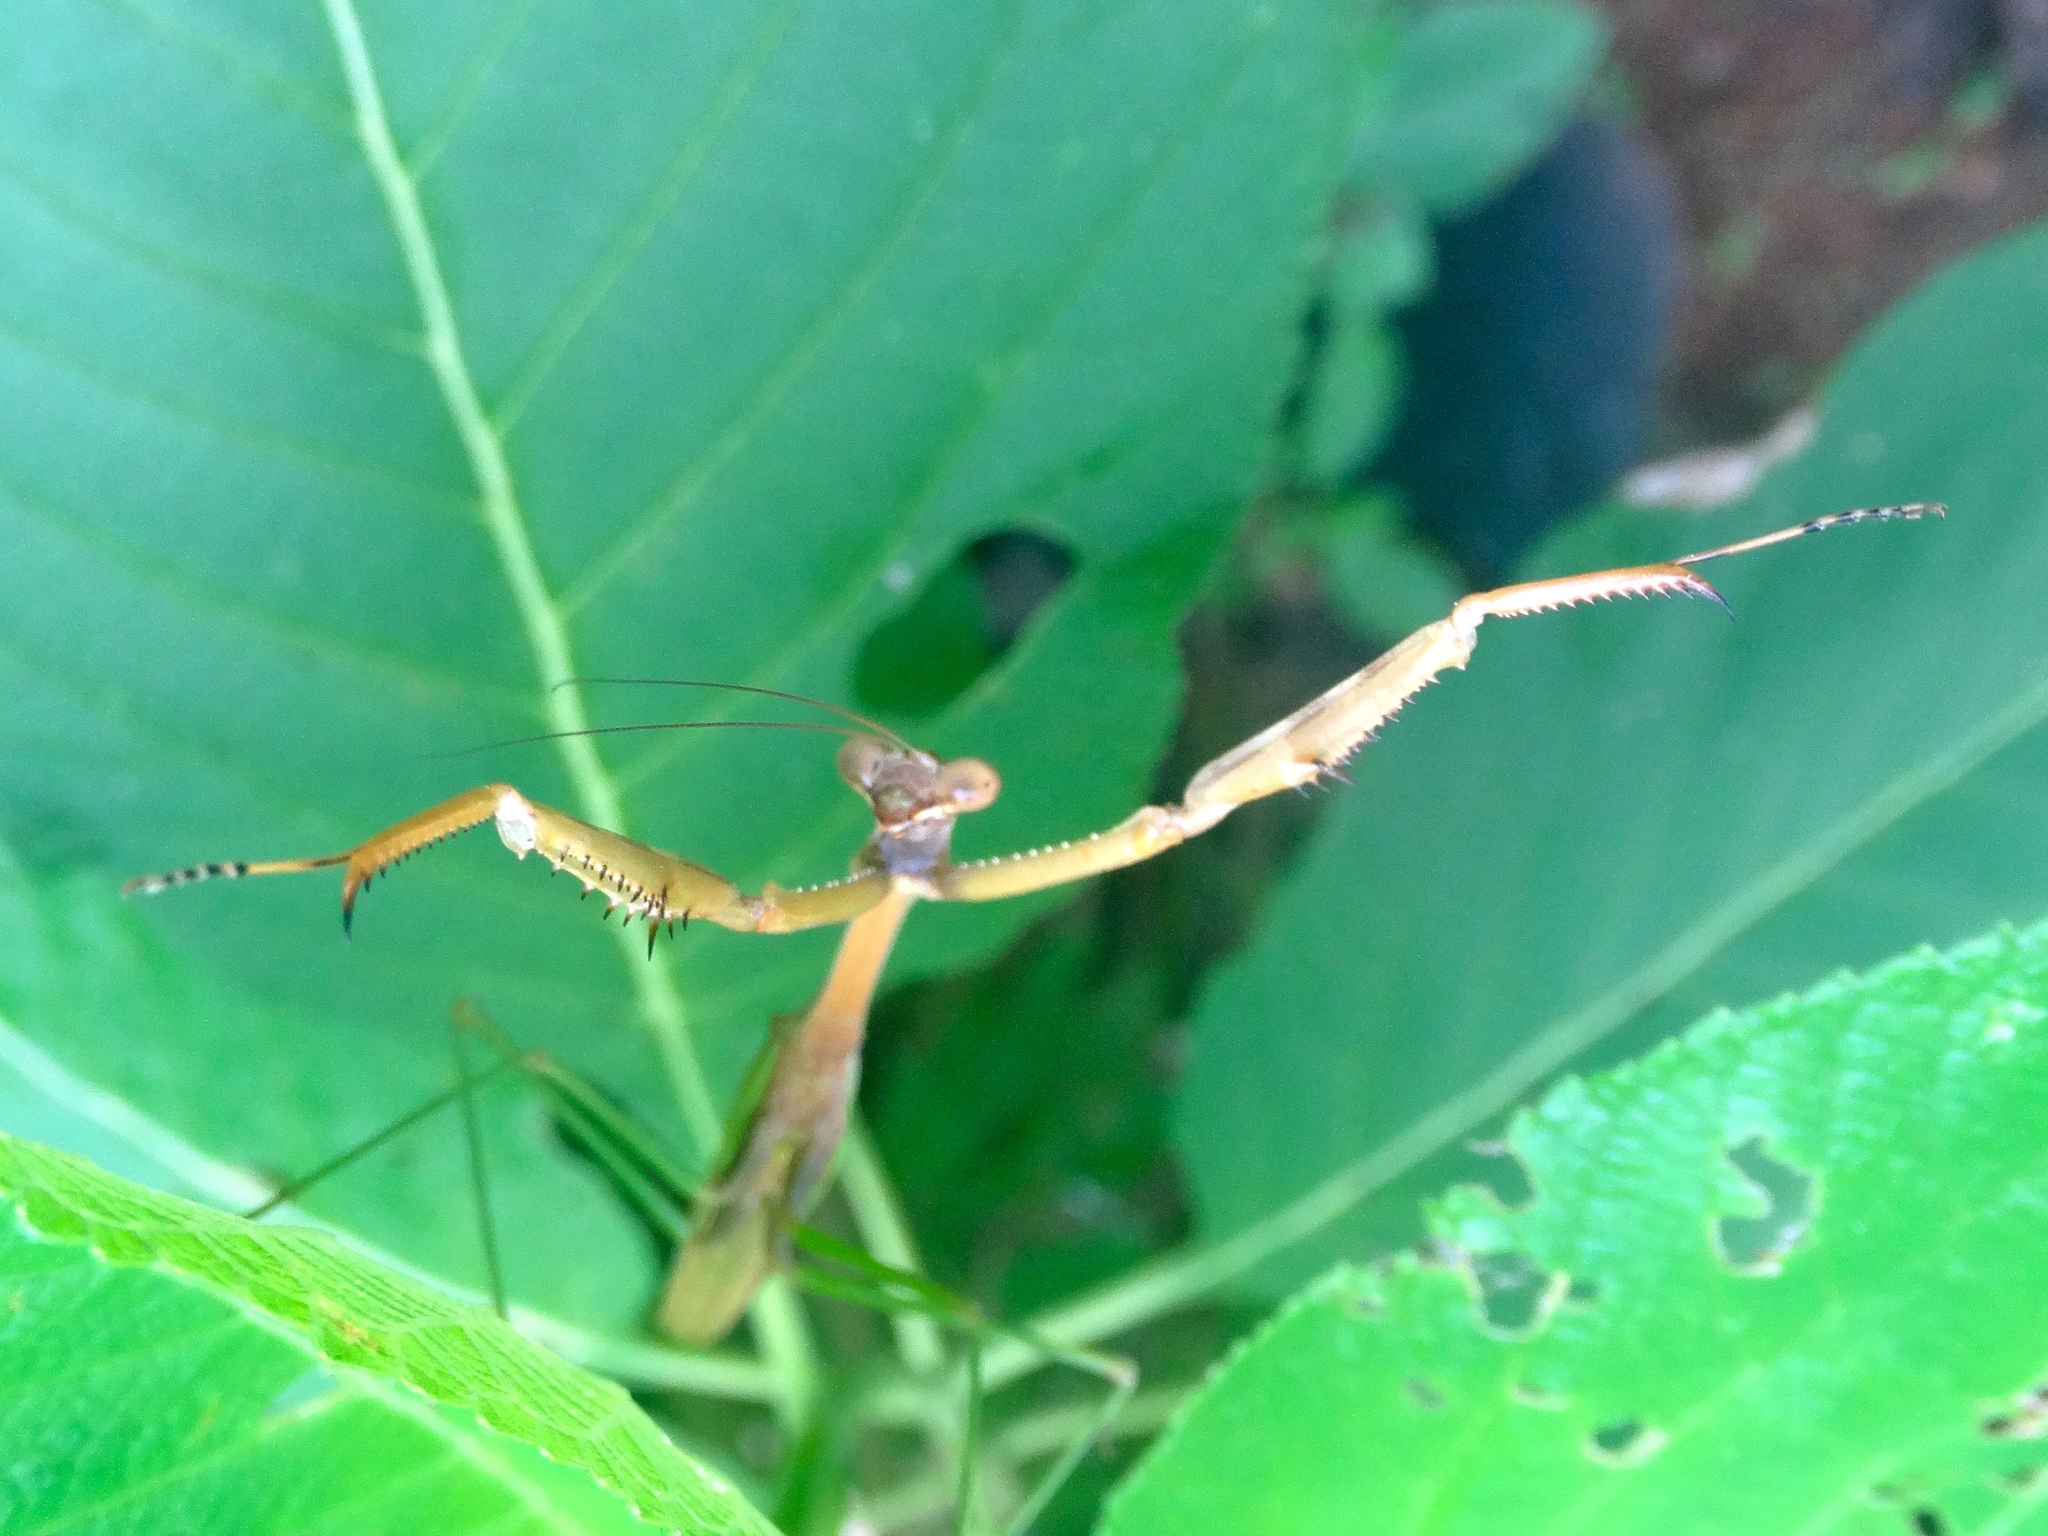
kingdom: Animalia
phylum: Arthropoda
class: Insecta
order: Mantodea
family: Mantidae
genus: Stagmomantis
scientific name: Stagmomantis colorata
